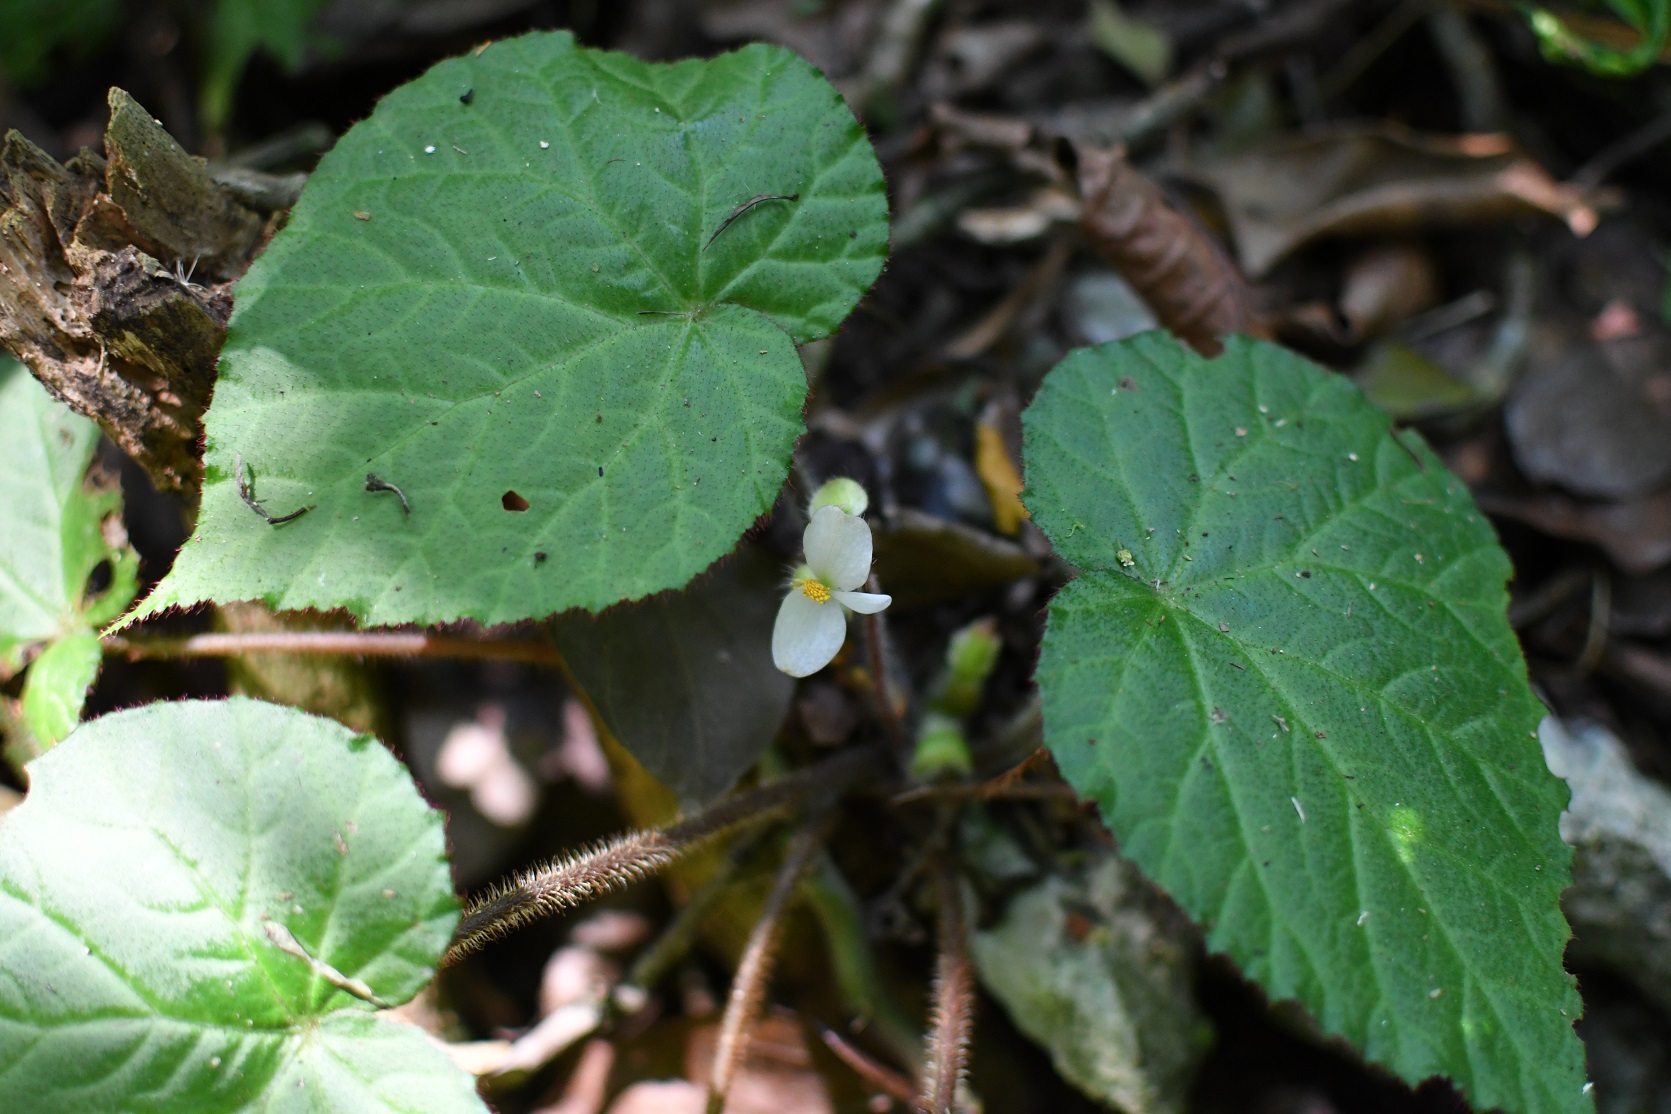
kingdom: Plantae
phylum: Tracheophyta
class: Magnoliopsida
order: Cucurbitales
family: Begoniaceae
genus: Begonia
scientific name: Begonia faustinoi
